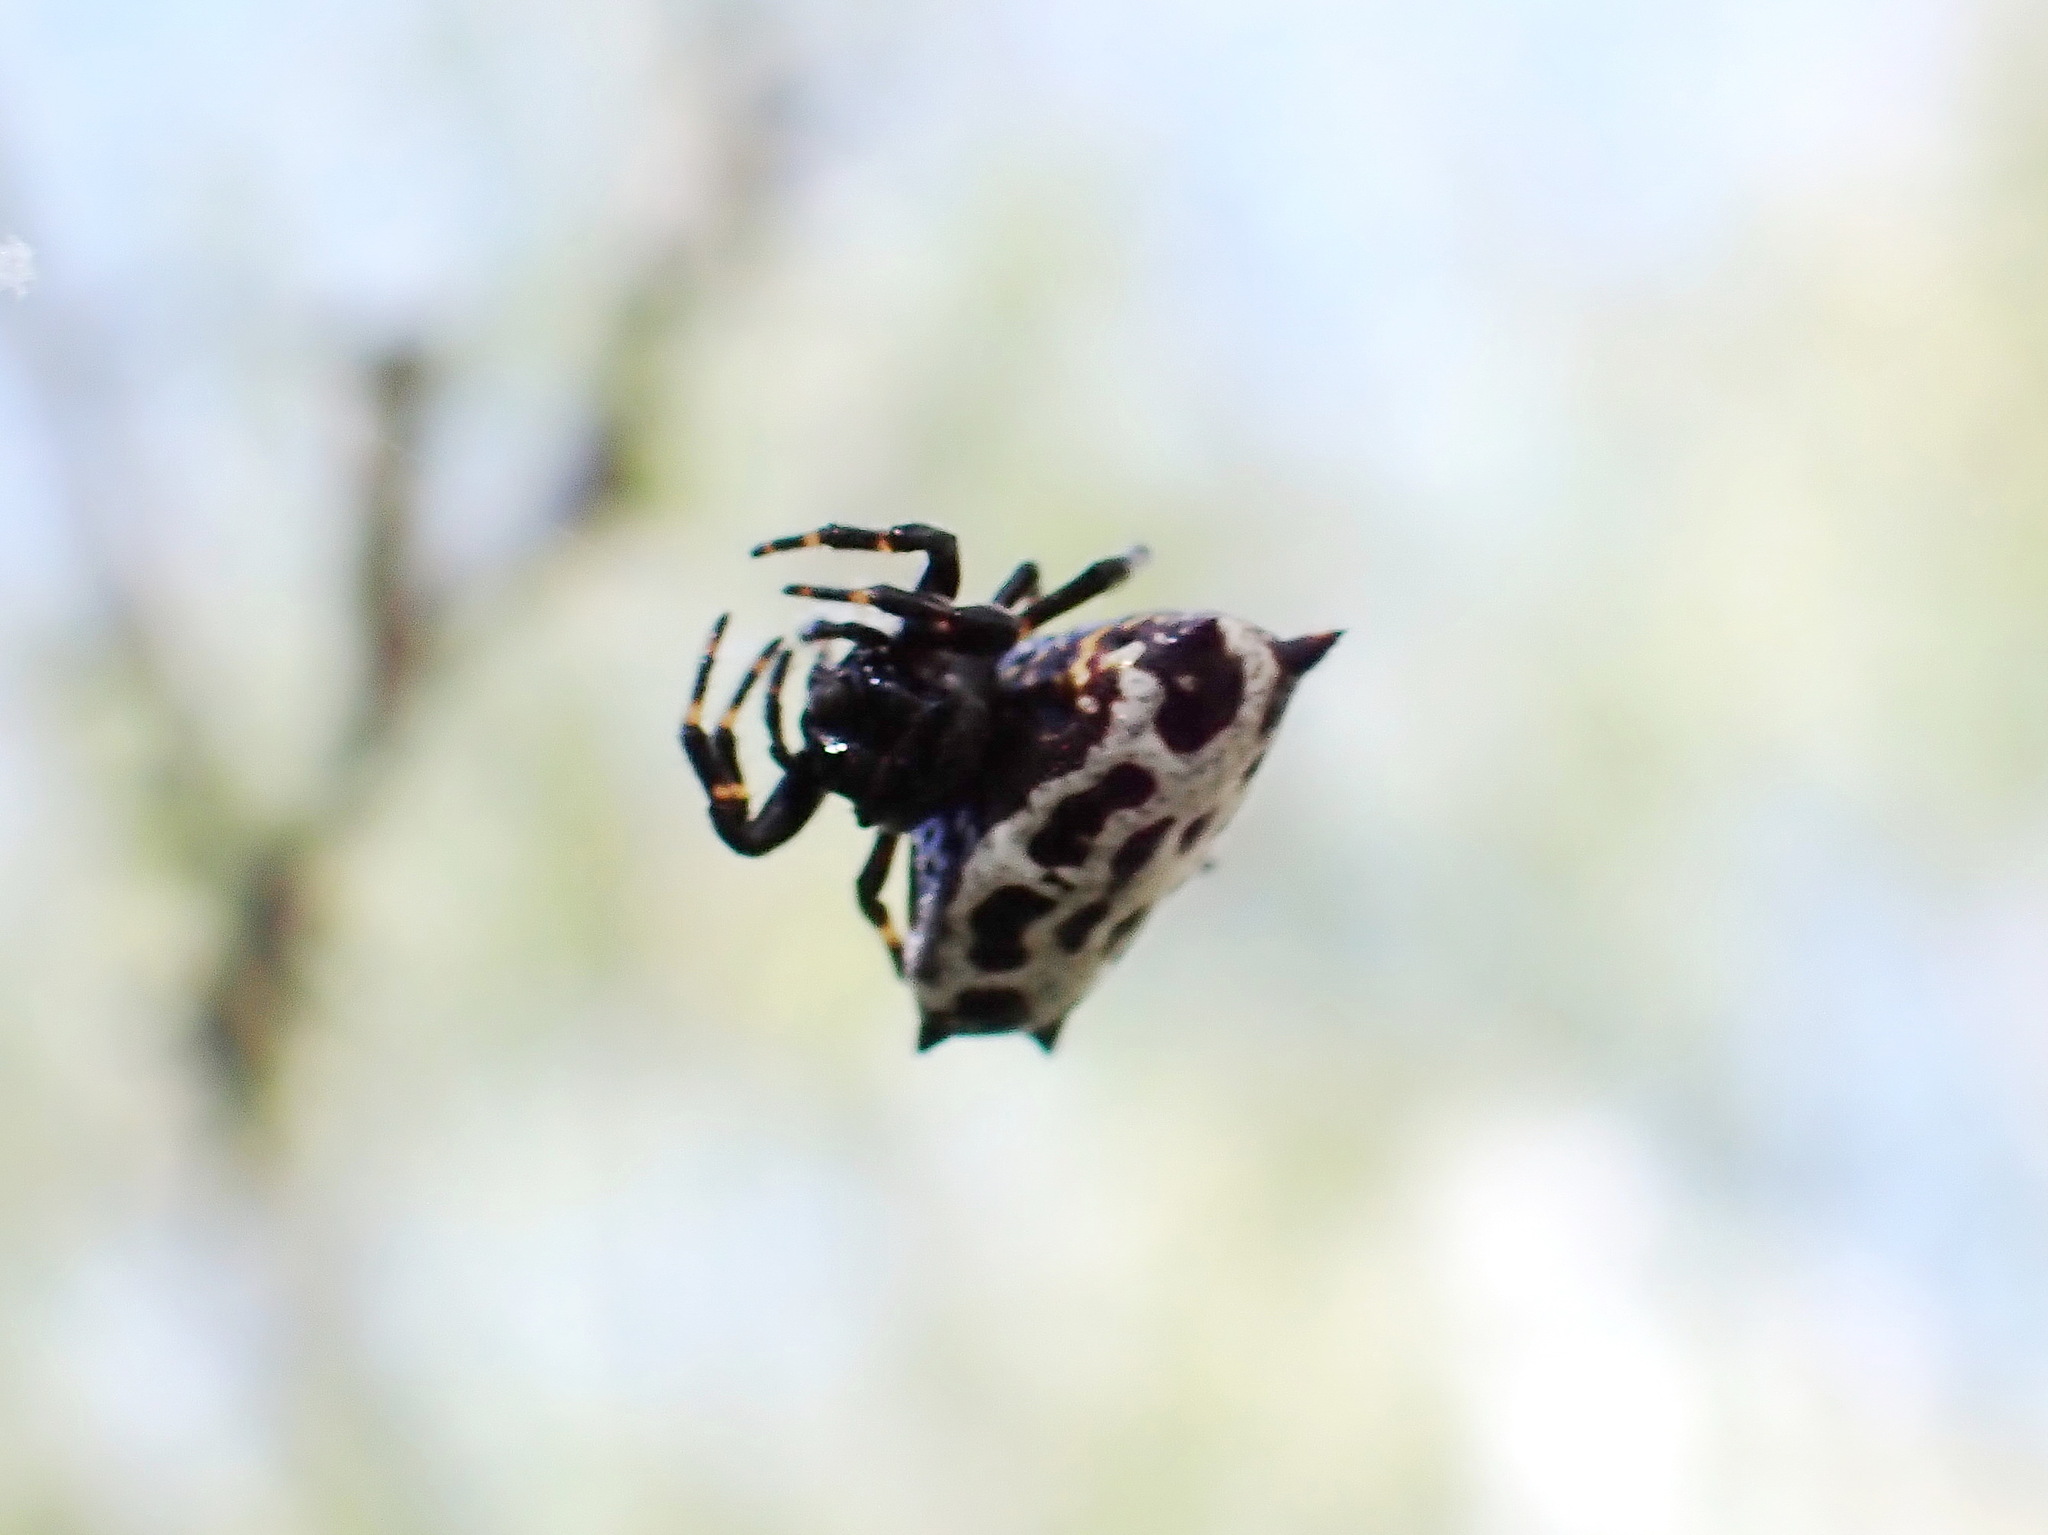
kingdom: Animalia
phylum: Arthropoda
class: Arachnida
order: Araneae
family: Araneidae
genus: Gasteracantha
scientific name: Gasteracantha cancriformis
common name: Orb weavers
